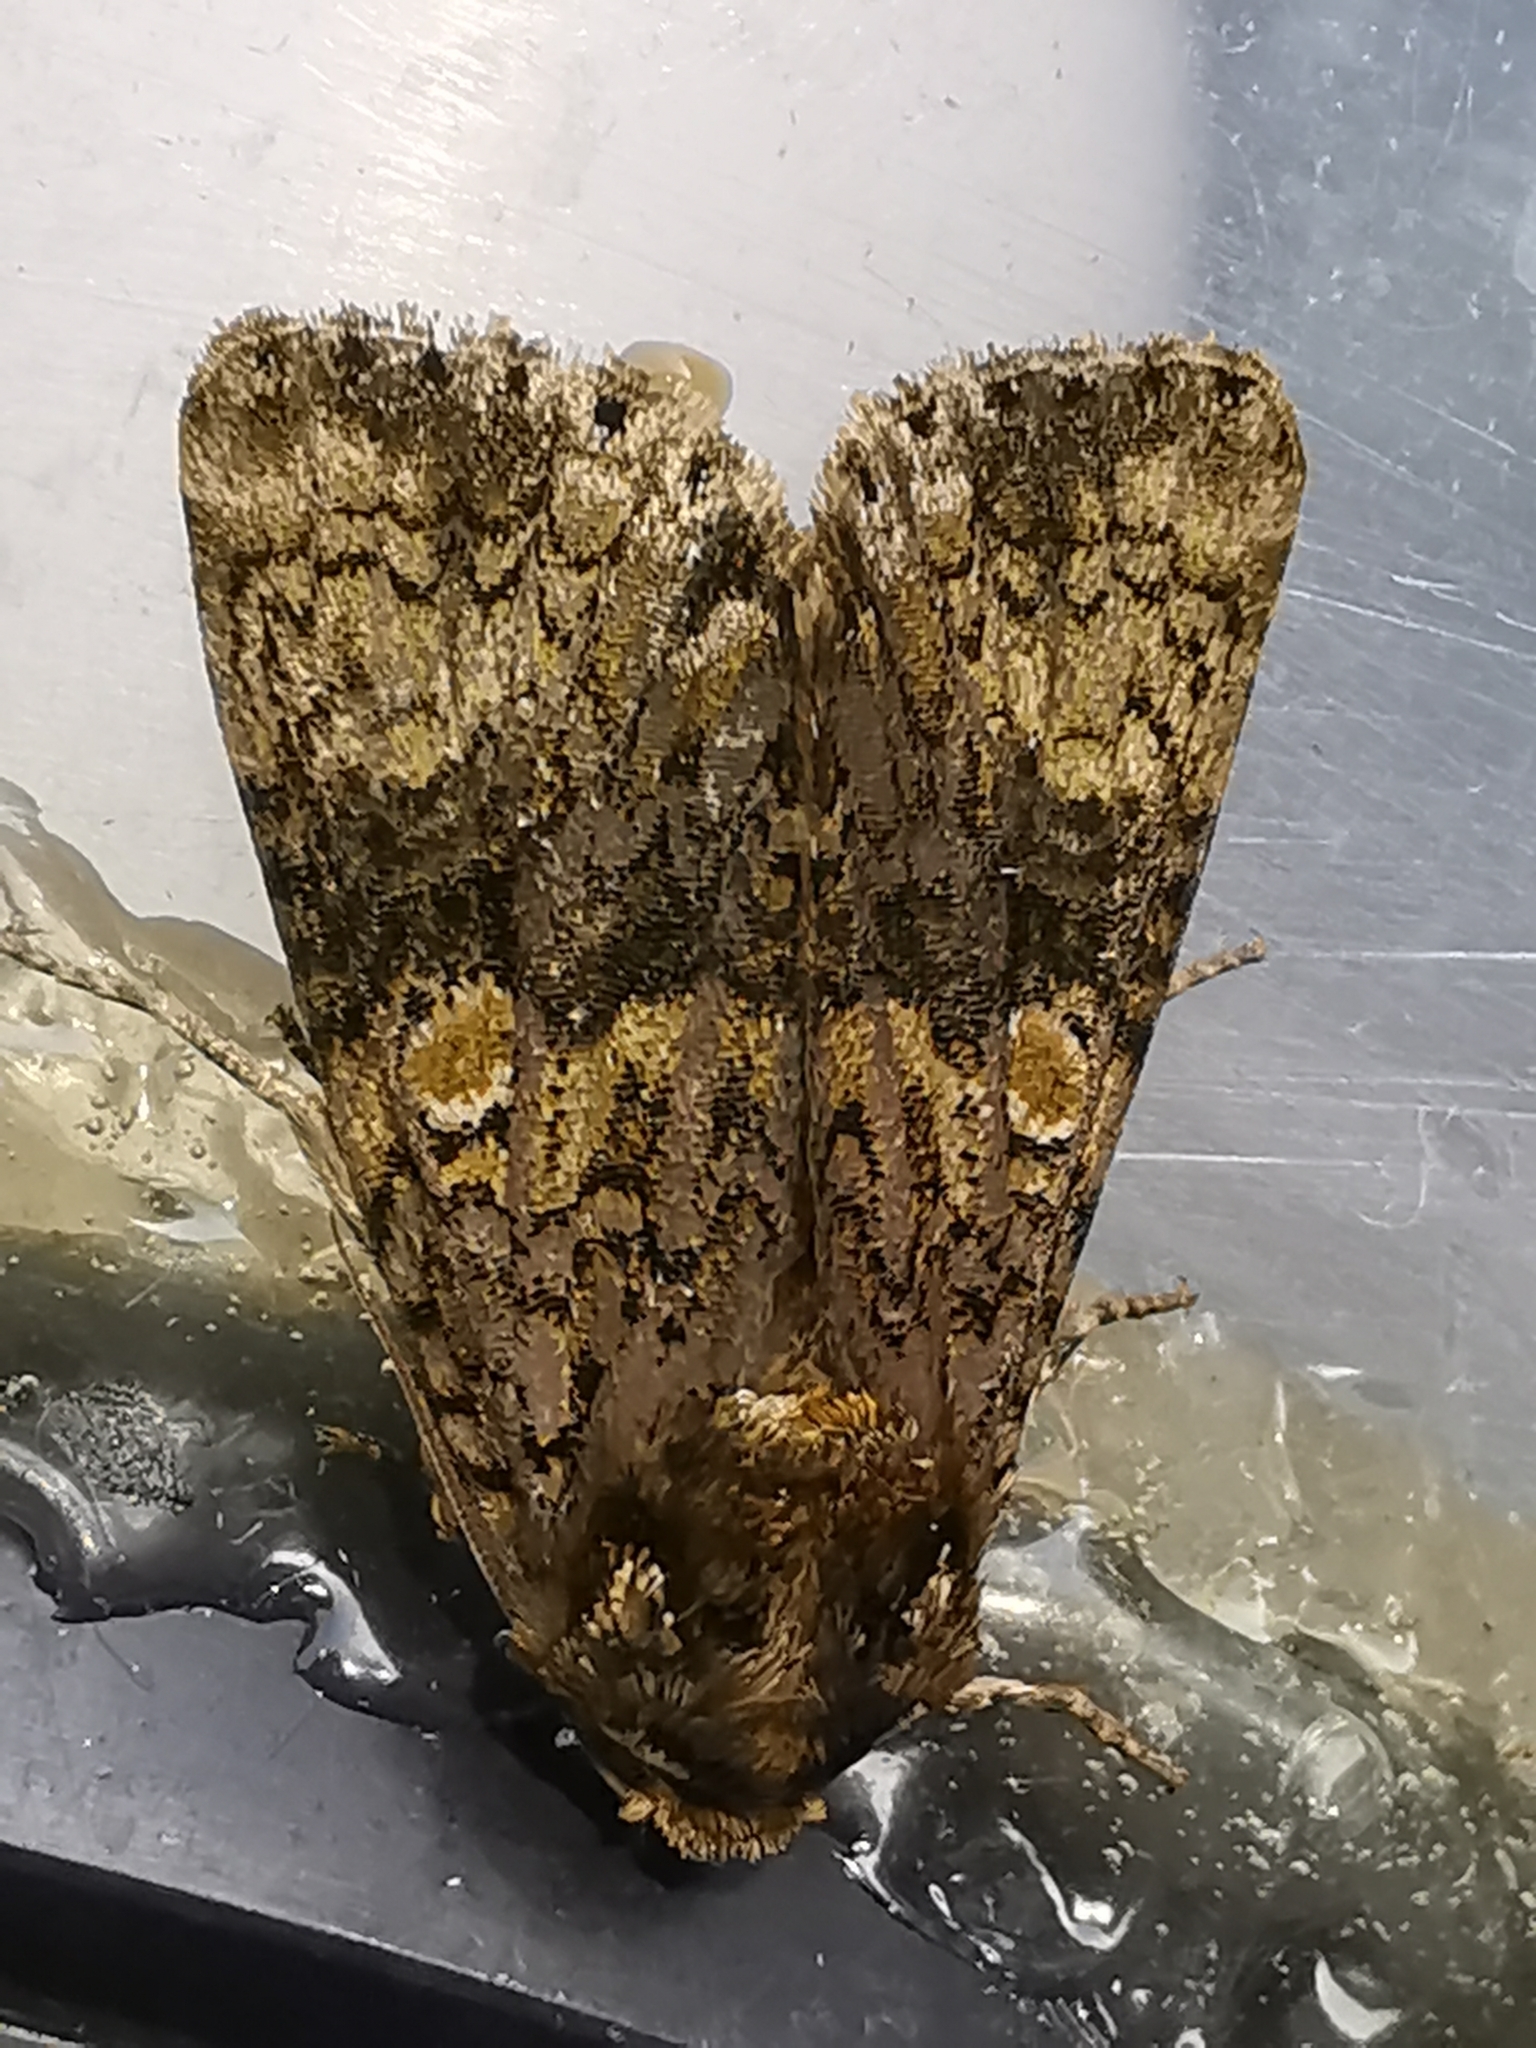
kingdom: Animalia
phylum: Arthropoda
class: Insecta
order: Lepidoptera
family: Noctuidae
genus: Craniophora
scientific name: Craniophora ligustri
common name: Coronet
